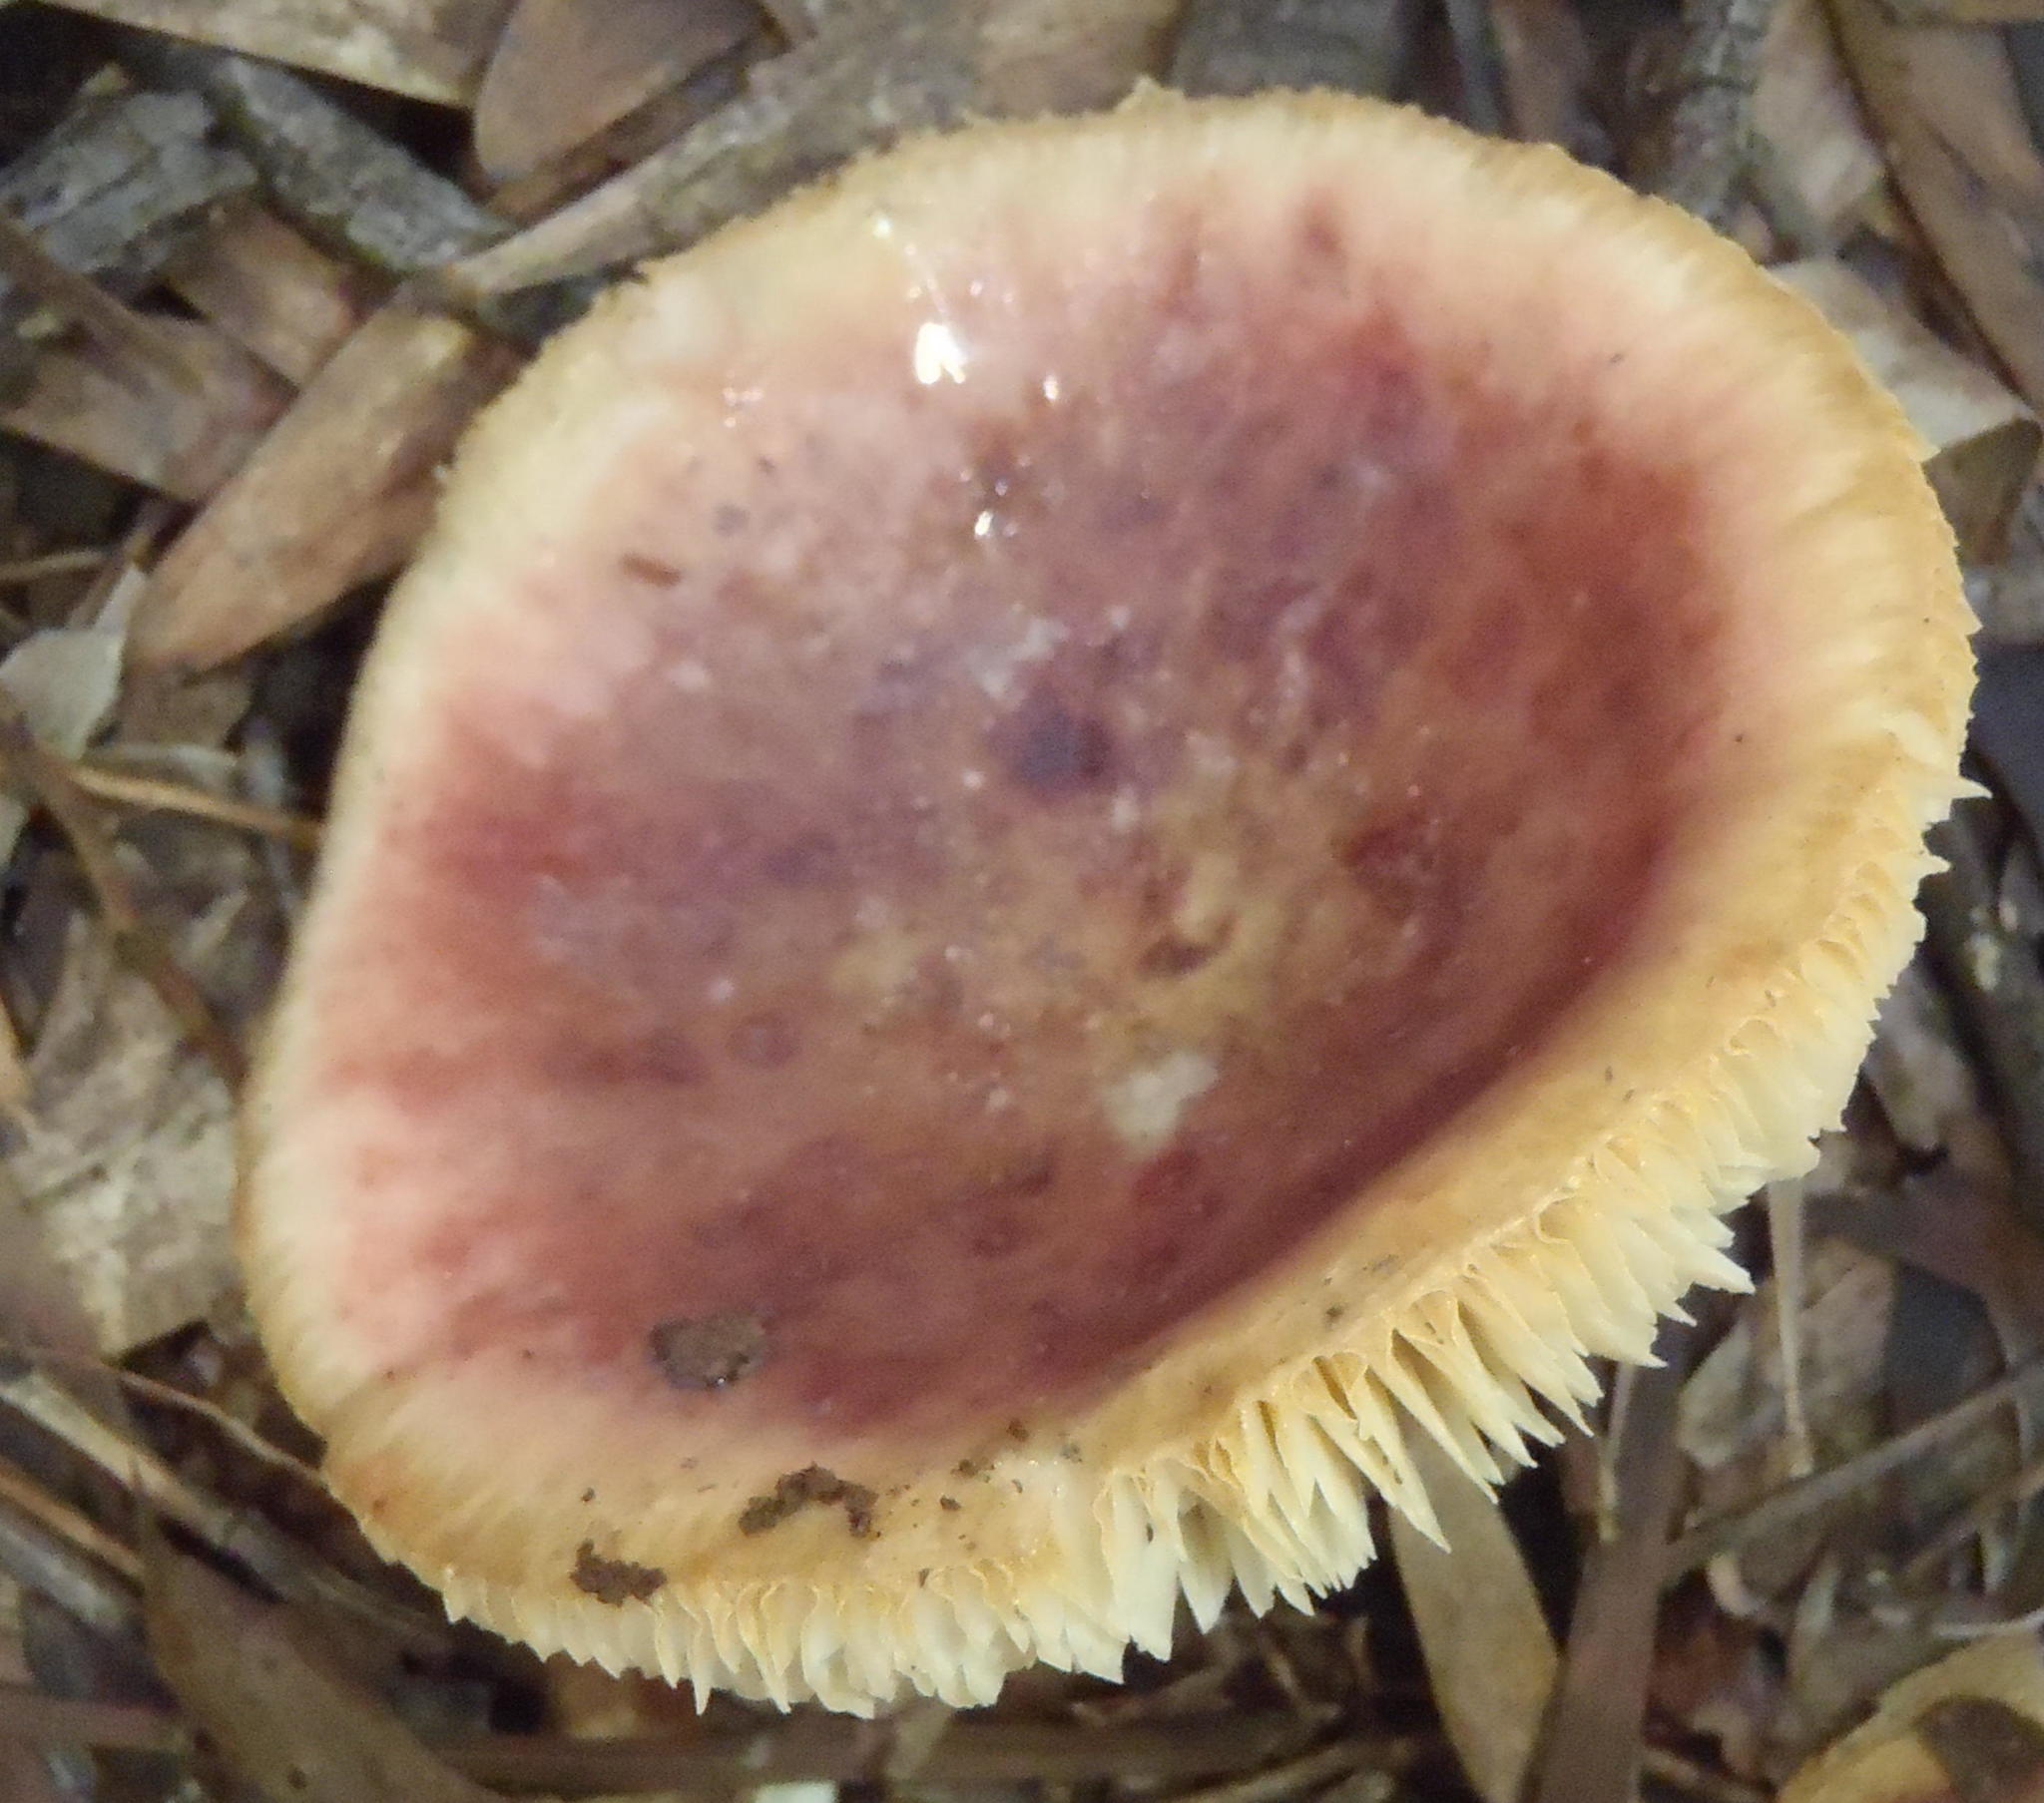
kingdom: Fungi
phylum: Basidiomycota
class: Agaricomycetes
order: Russulales
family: Russulaceae
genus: Russula
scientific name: Russula sardonia
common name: Primrose brittlegill
